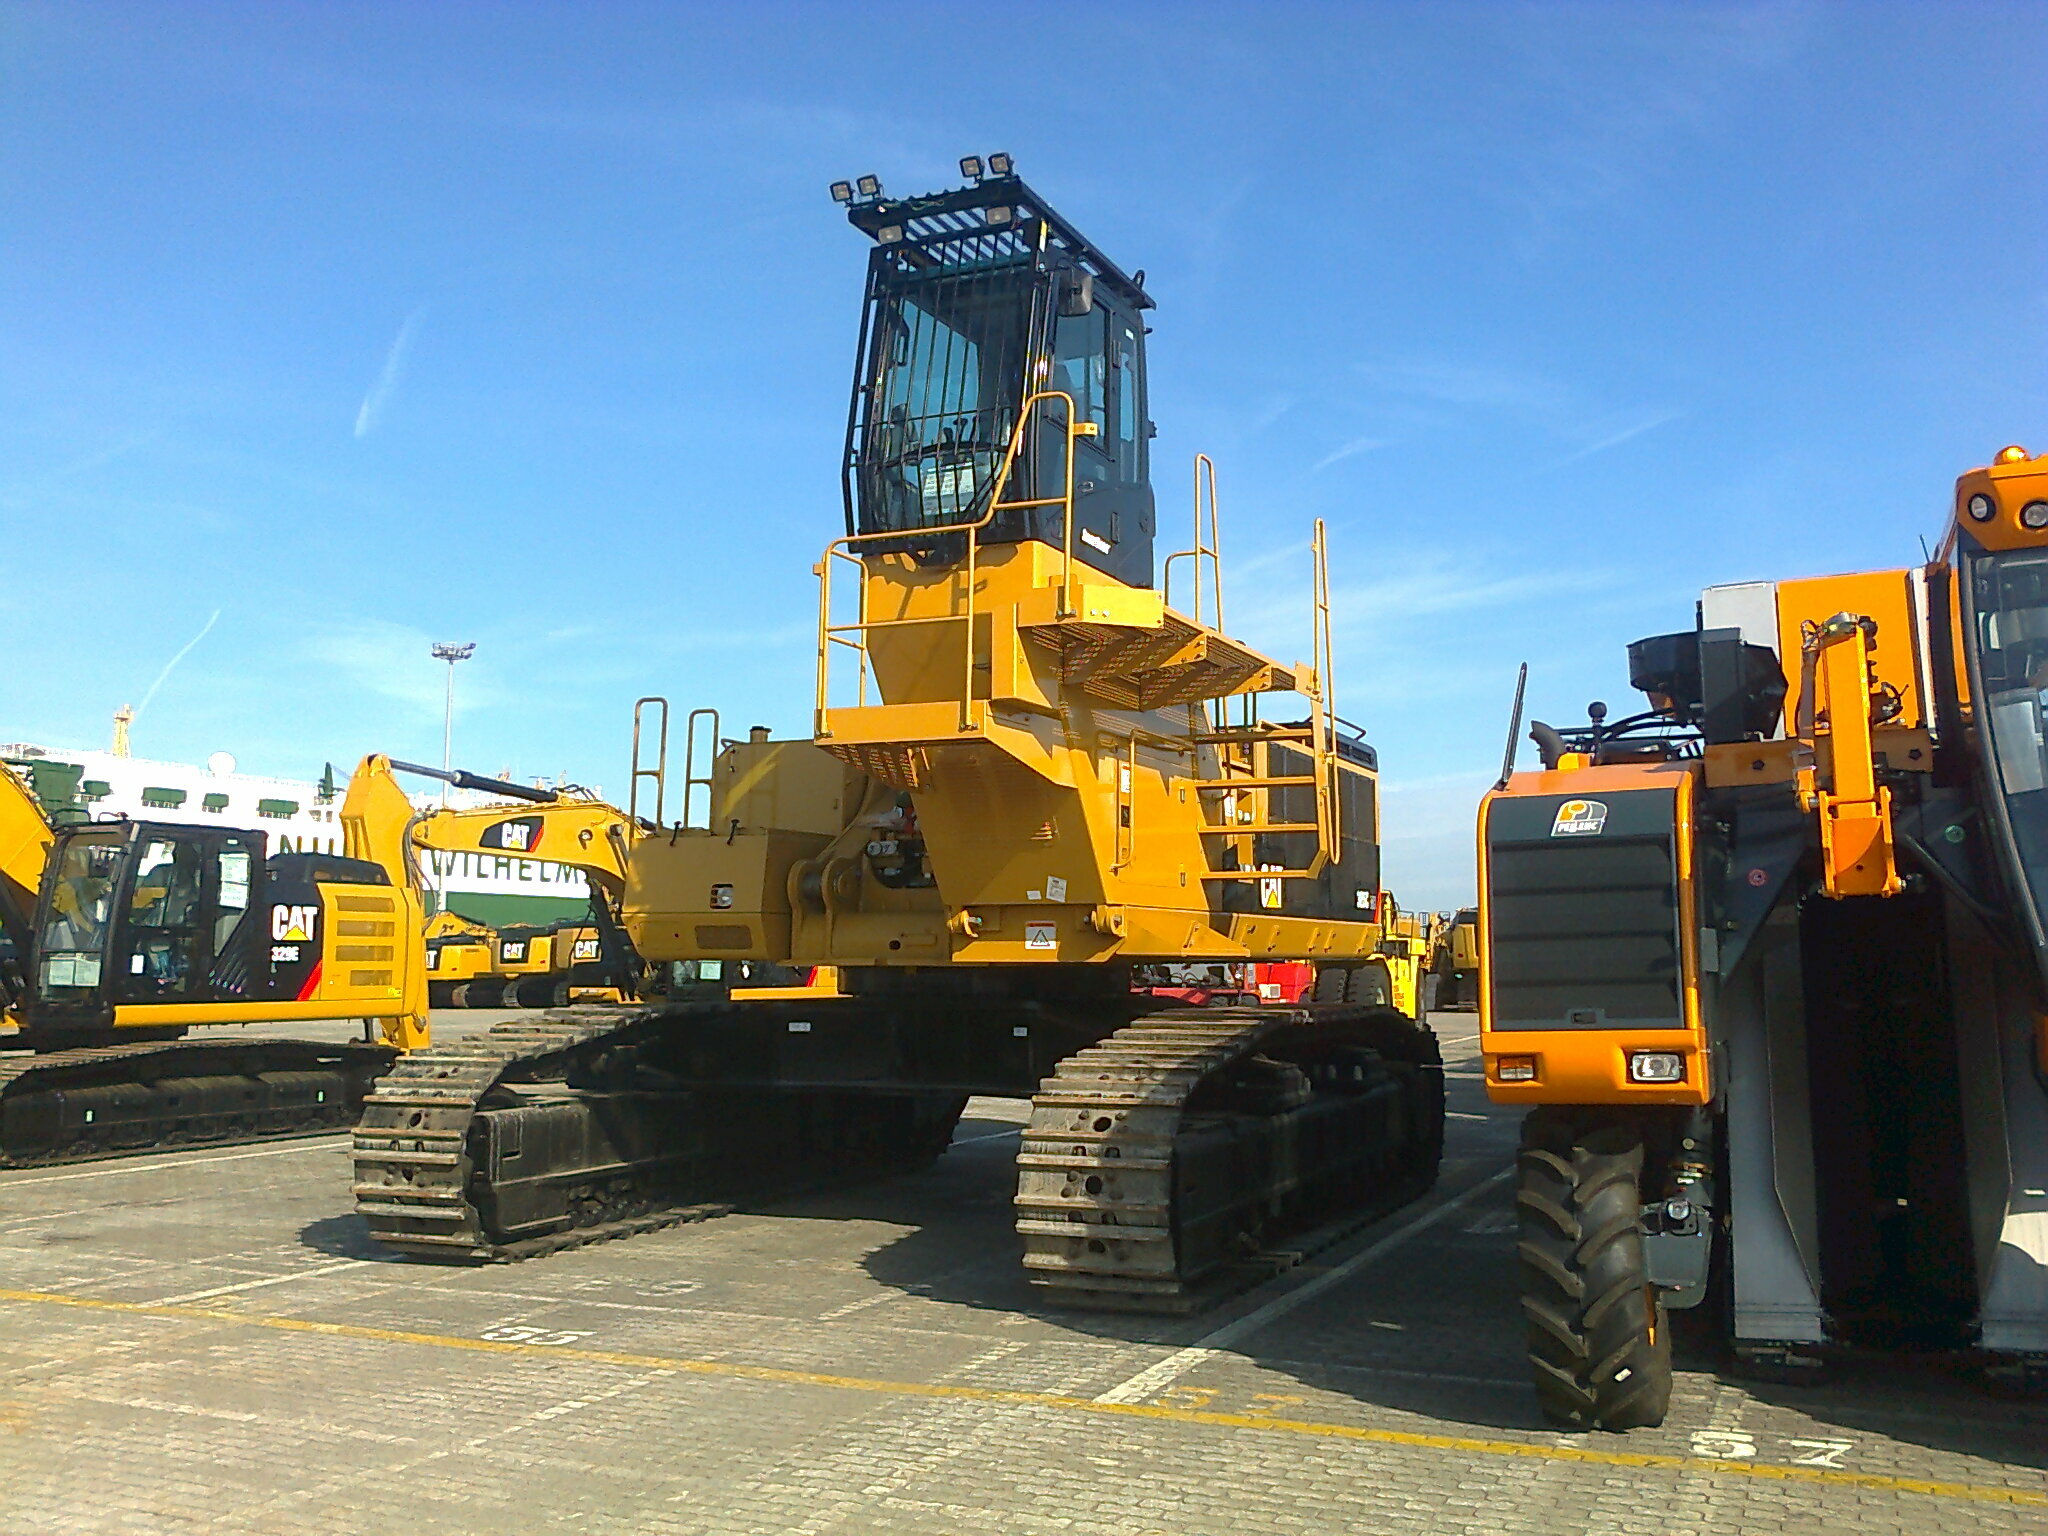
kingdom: Animalia
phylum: Arthropoda
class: Insecta
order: Hymenoptera
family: Vespidae
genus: Vespa
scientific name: Vespa velutina
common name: Asian hornet
